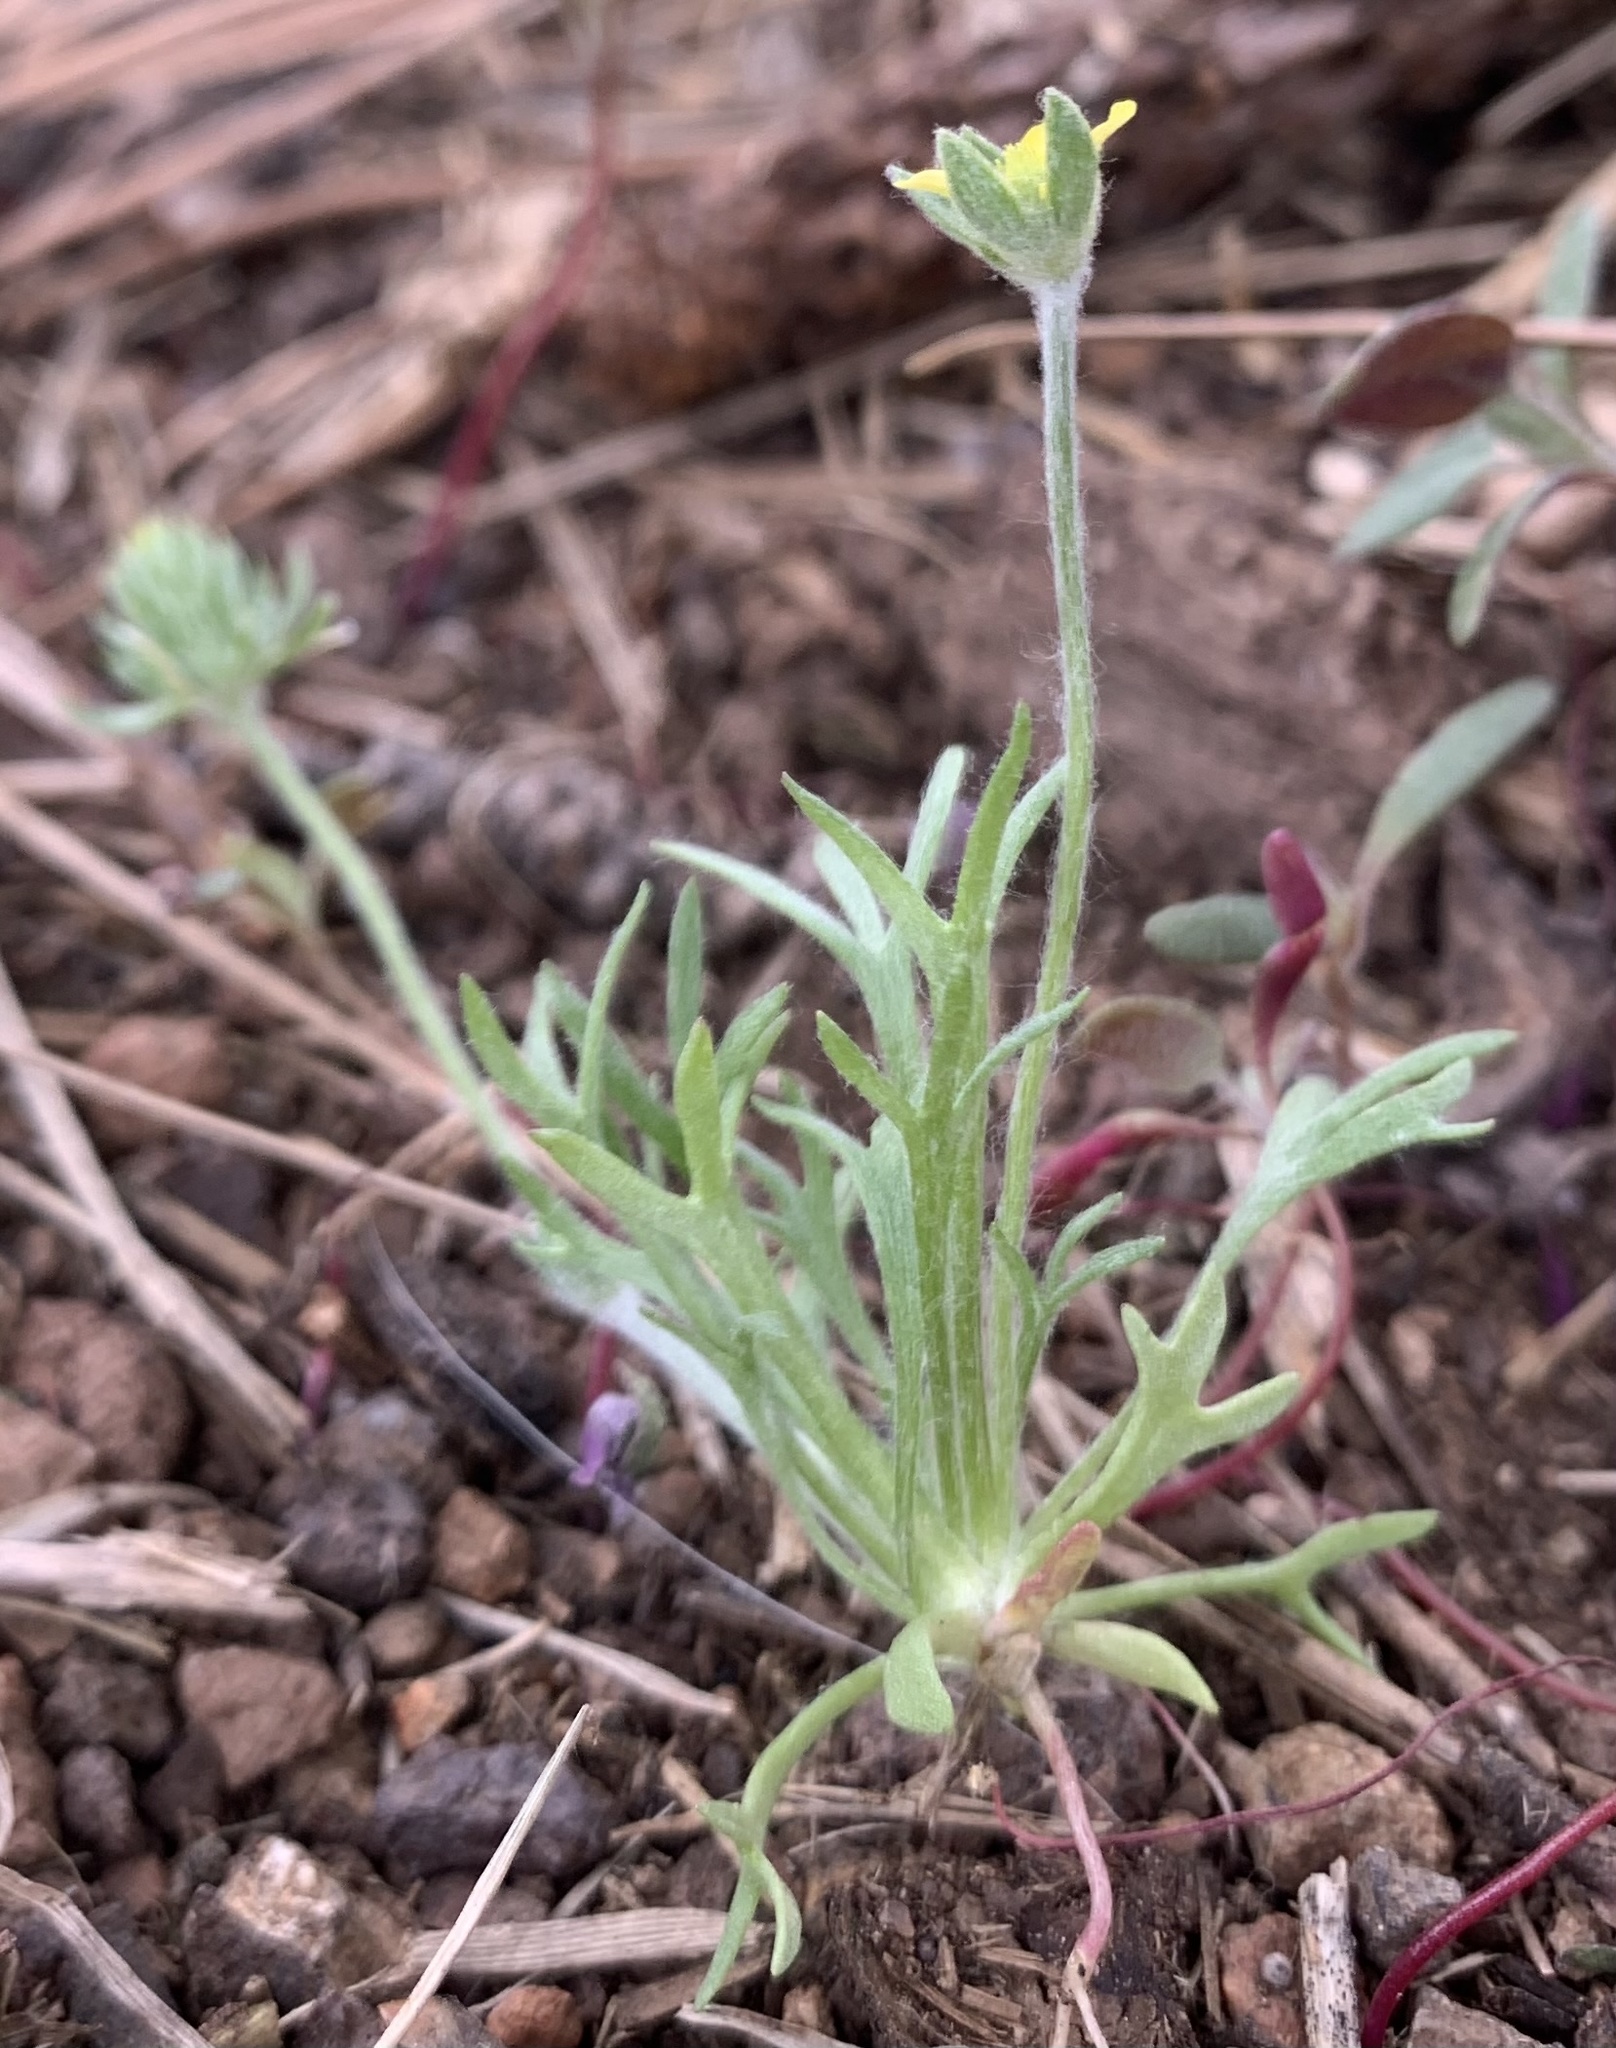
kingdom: Plantae
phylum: Tracheophyta
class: Magnoliopsida
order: Ranunculales
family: Ranunculaceae
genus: Ceratocephala
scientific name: Ceratocephala orthoceras
